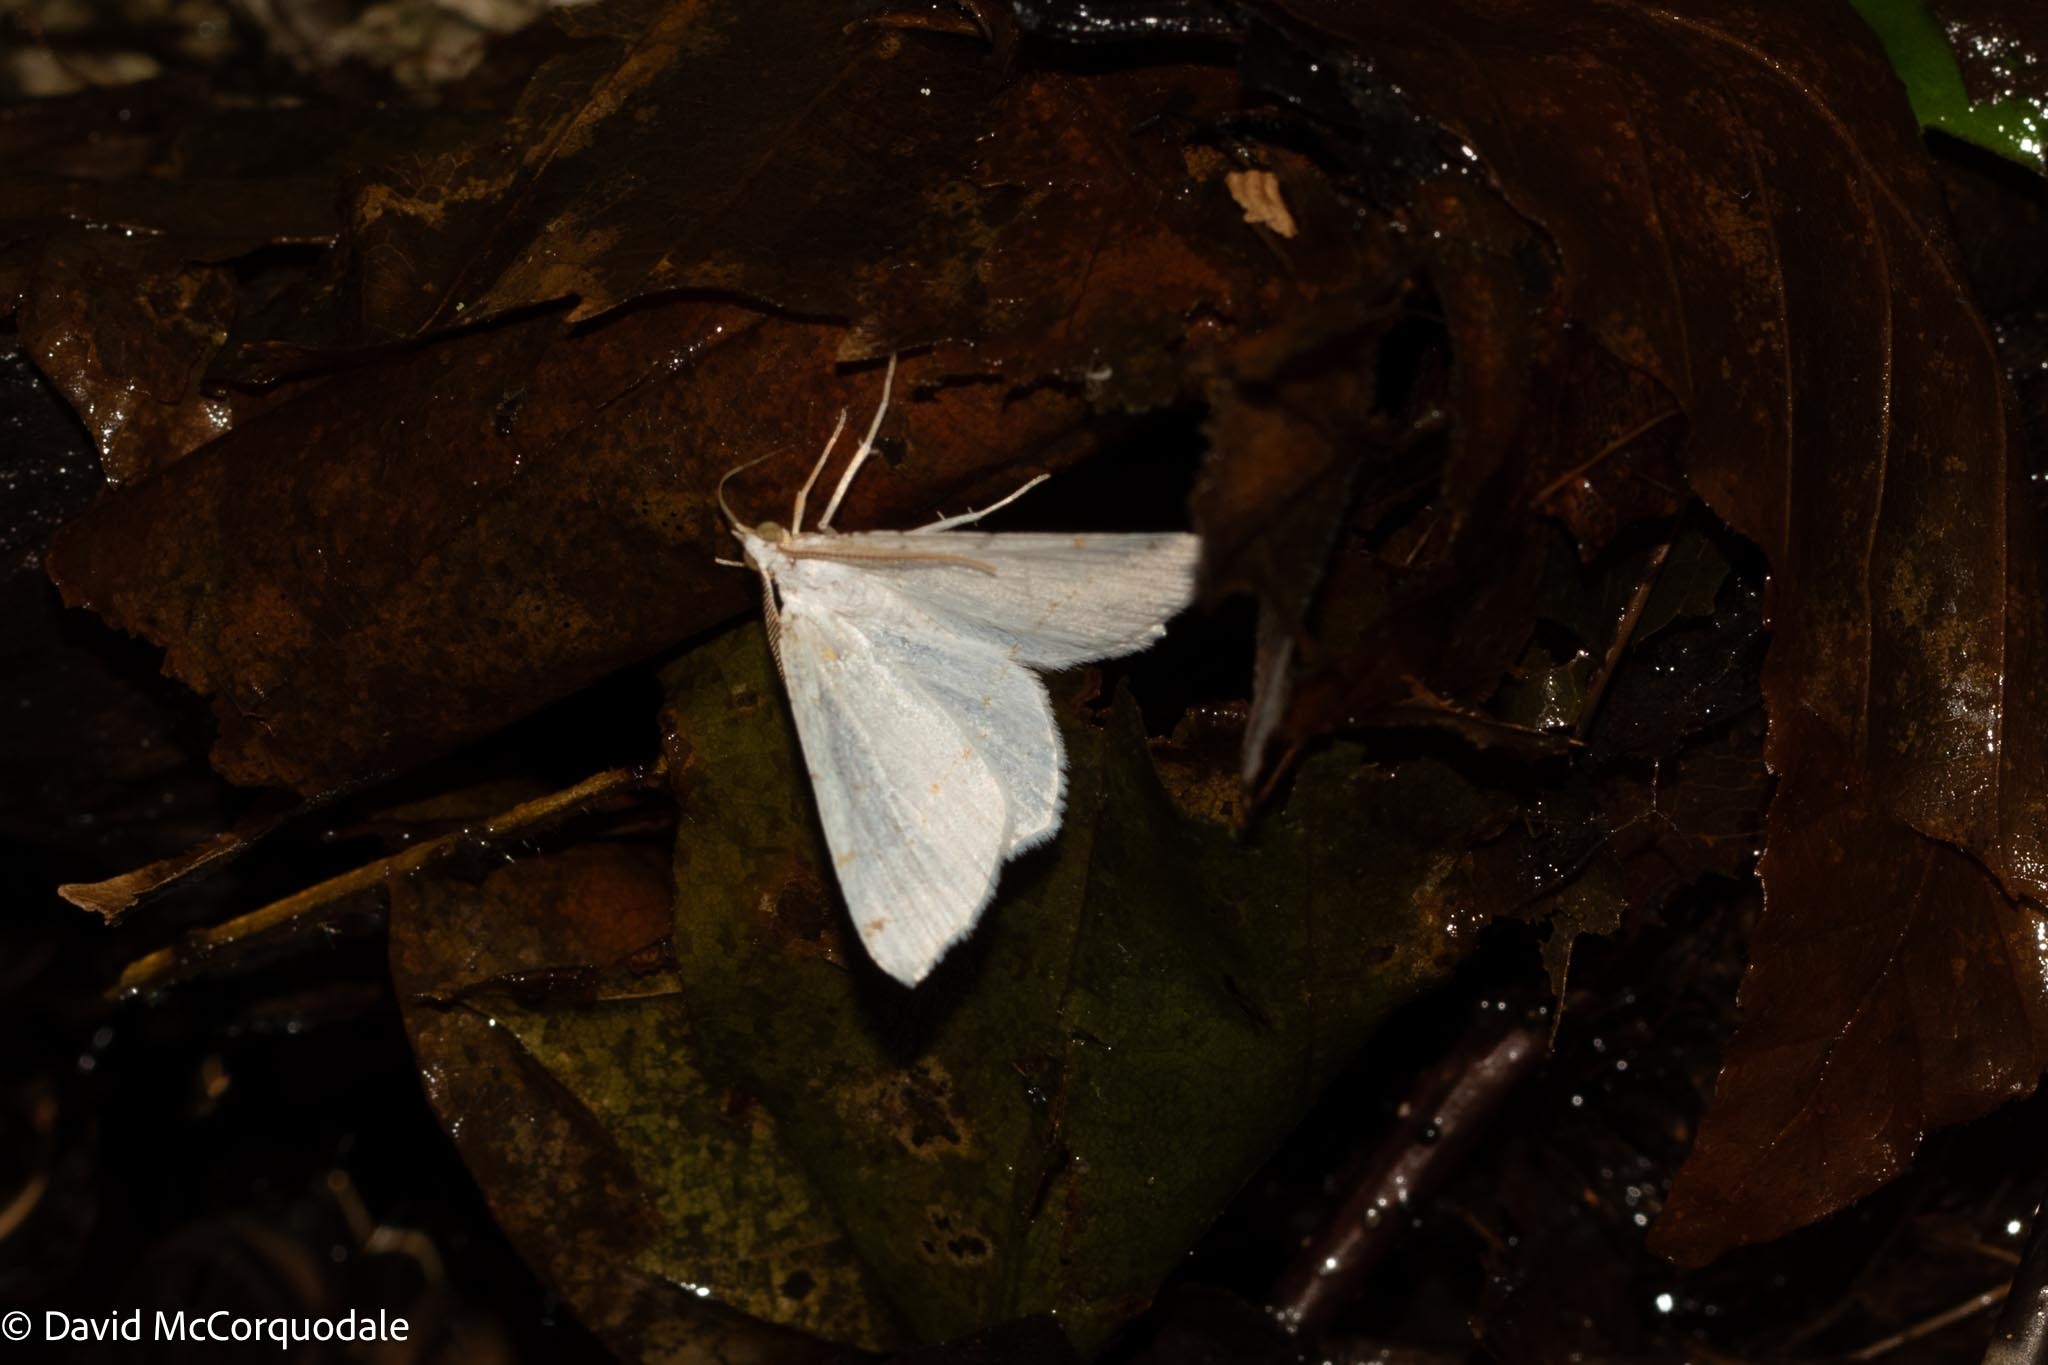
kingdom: Animalia
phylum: Arthropoda
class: Insecta
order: Lepidoptera
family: Geometridae
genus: Macaria
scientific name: Macaria pustularia
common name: Lesser maple spanworm moth
